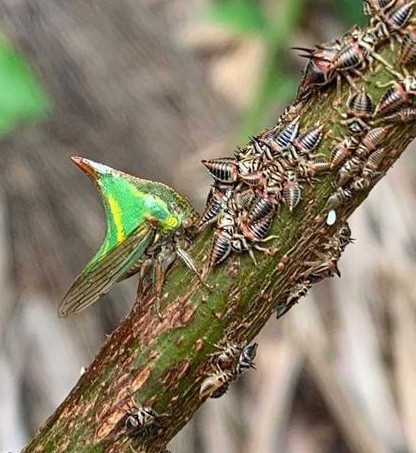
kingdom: Animalia
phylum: Arthropoda
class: Insecta
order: Hemiptera
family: Membracidae
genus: Umbonia
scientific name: Umbonia crassicornis
